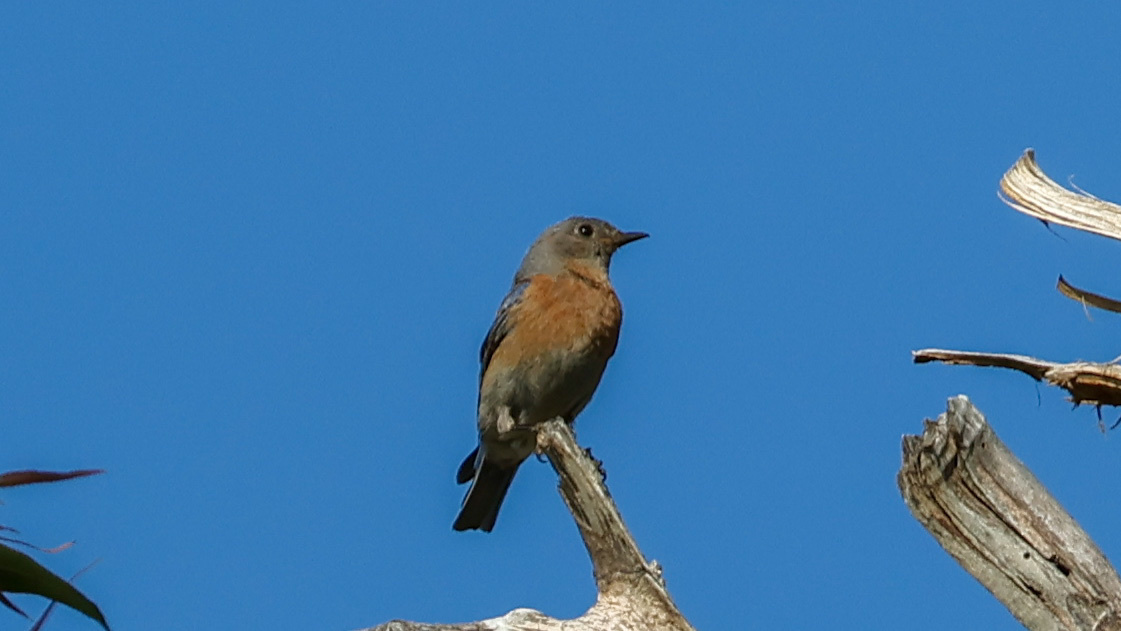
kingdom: Animalia
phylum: Chordata
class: Aves
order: Passeriformes
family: Turdidae
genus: Sialia
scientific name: Sialia mexicana
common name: Western bluebird
